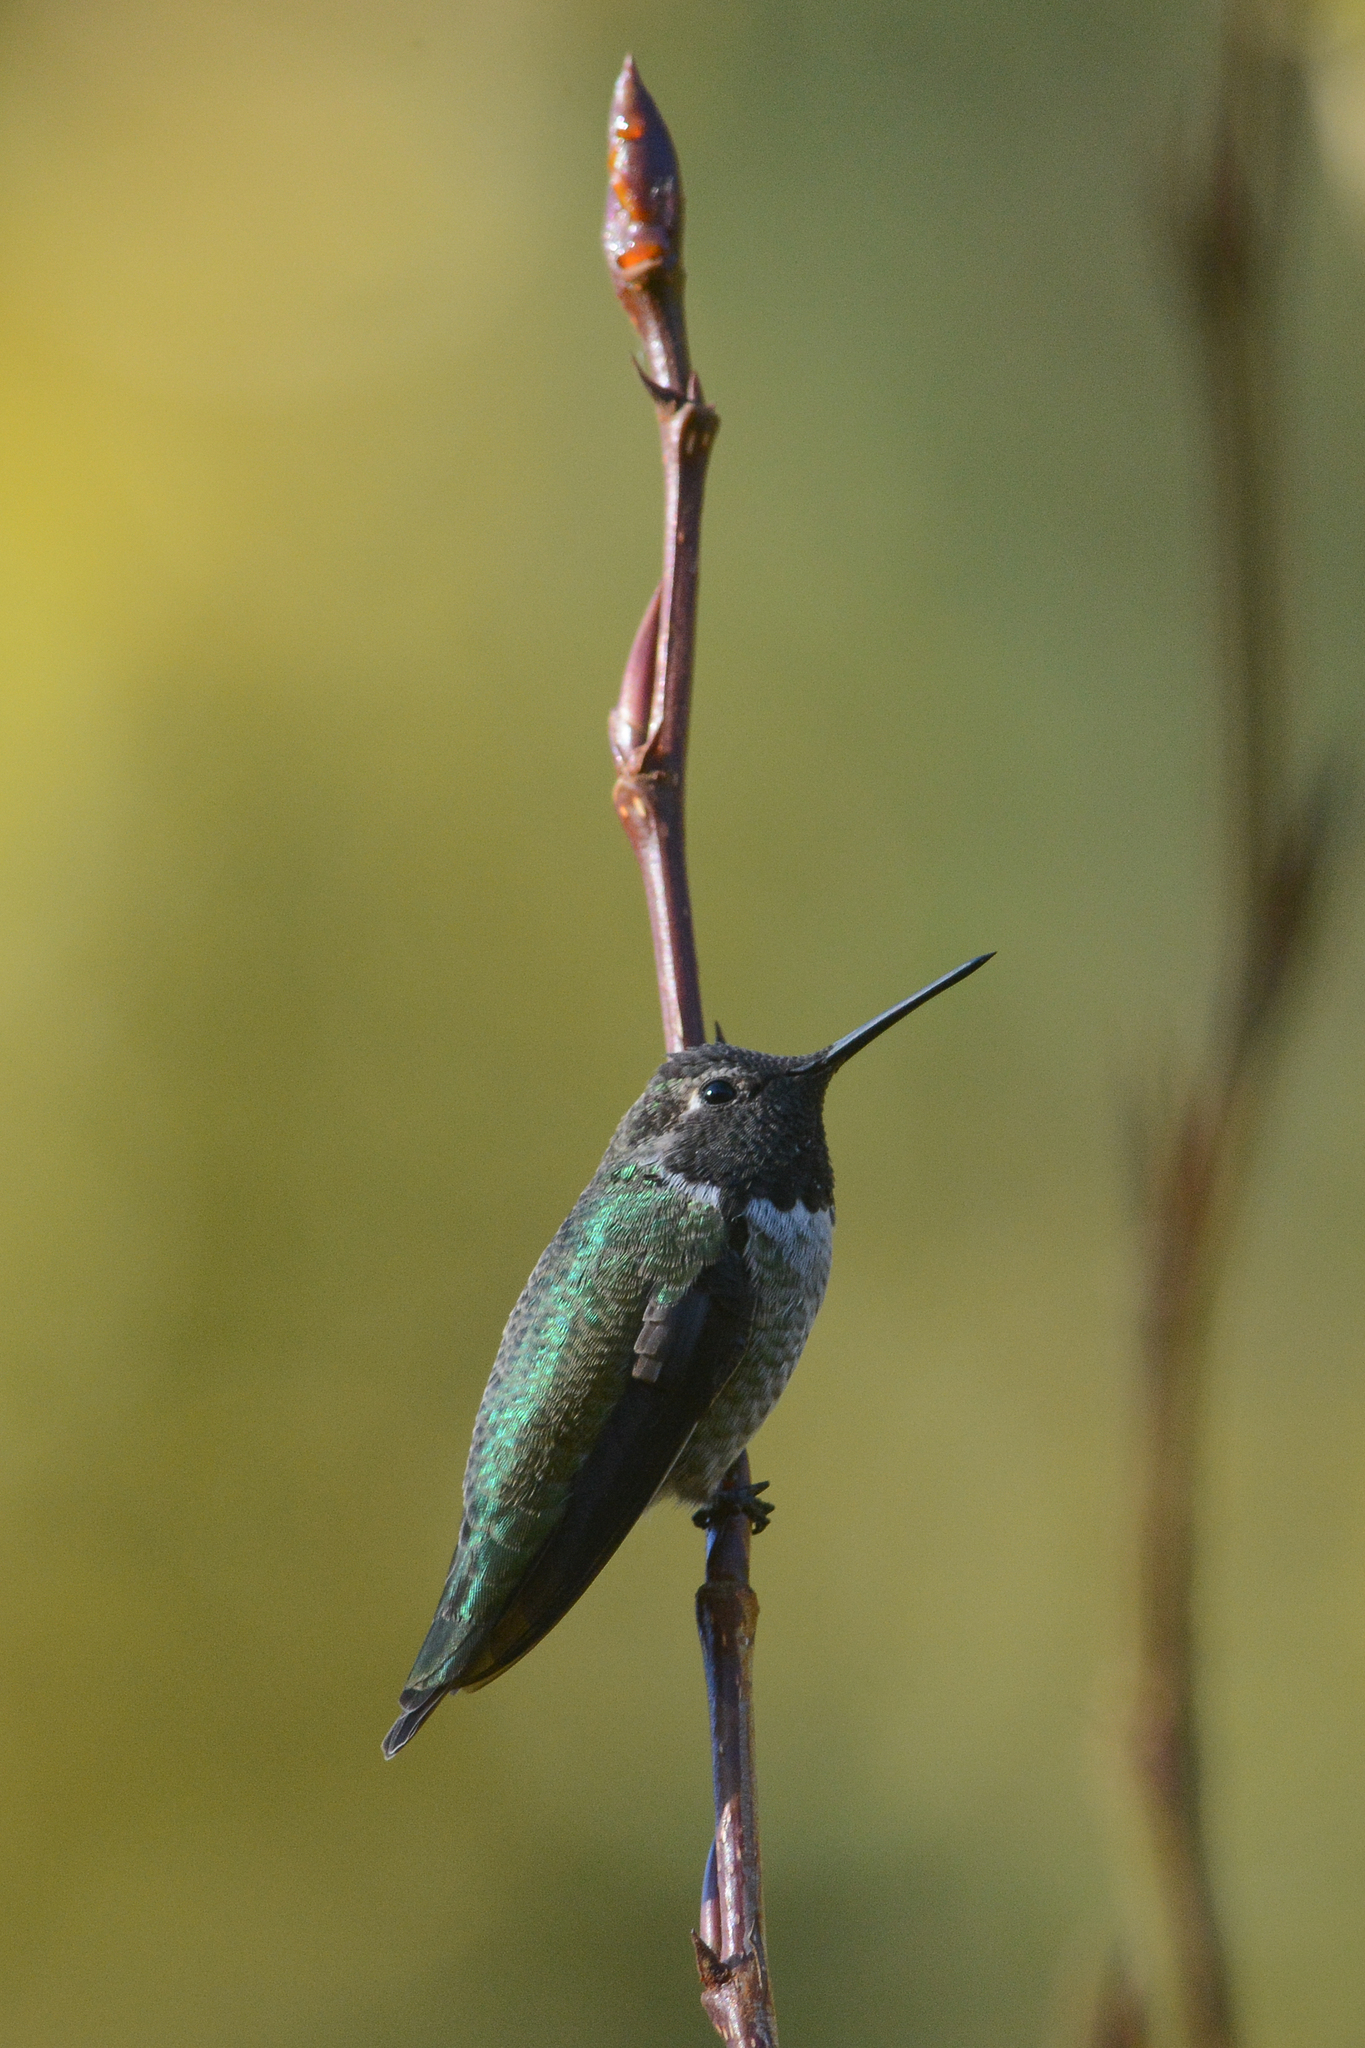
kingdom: Animalia
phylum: Chordata
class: Aves
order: Apodiformes
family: Trochilidae
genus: Calypte
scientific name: Calypte anna
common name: Anna's hummingbird
